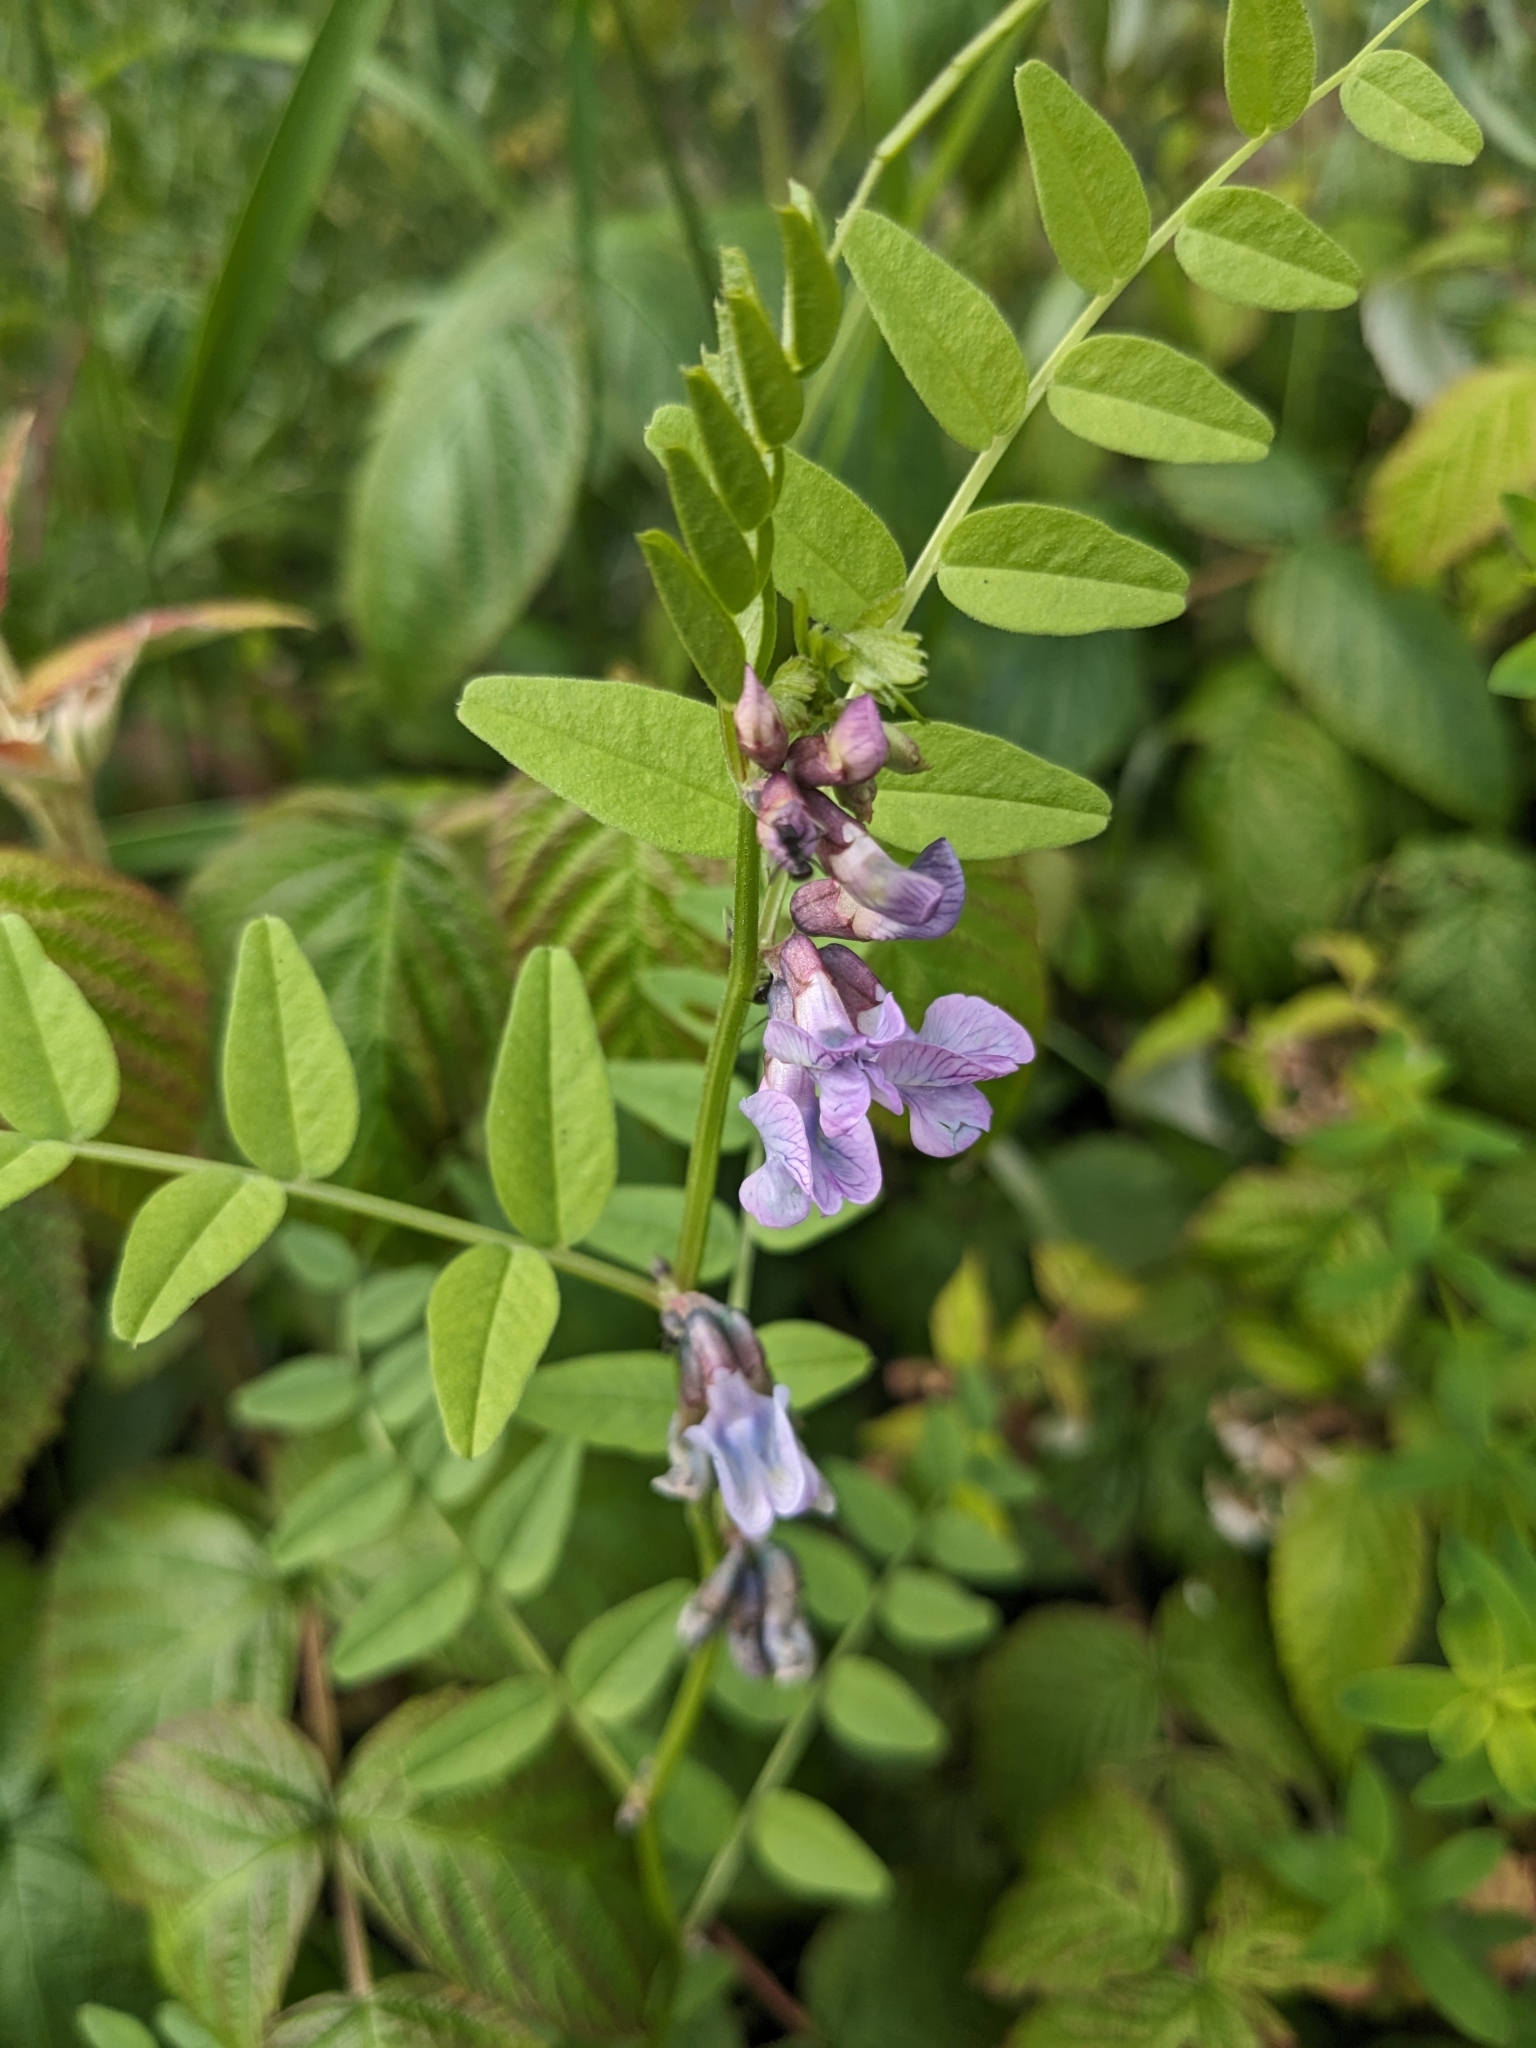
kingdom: Plantae
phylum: Tracheophyta
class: Magnoliopsida
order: Fabales
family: Fabaceae
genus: Vicia
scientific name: Vicia sepium
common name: Bush vetch
